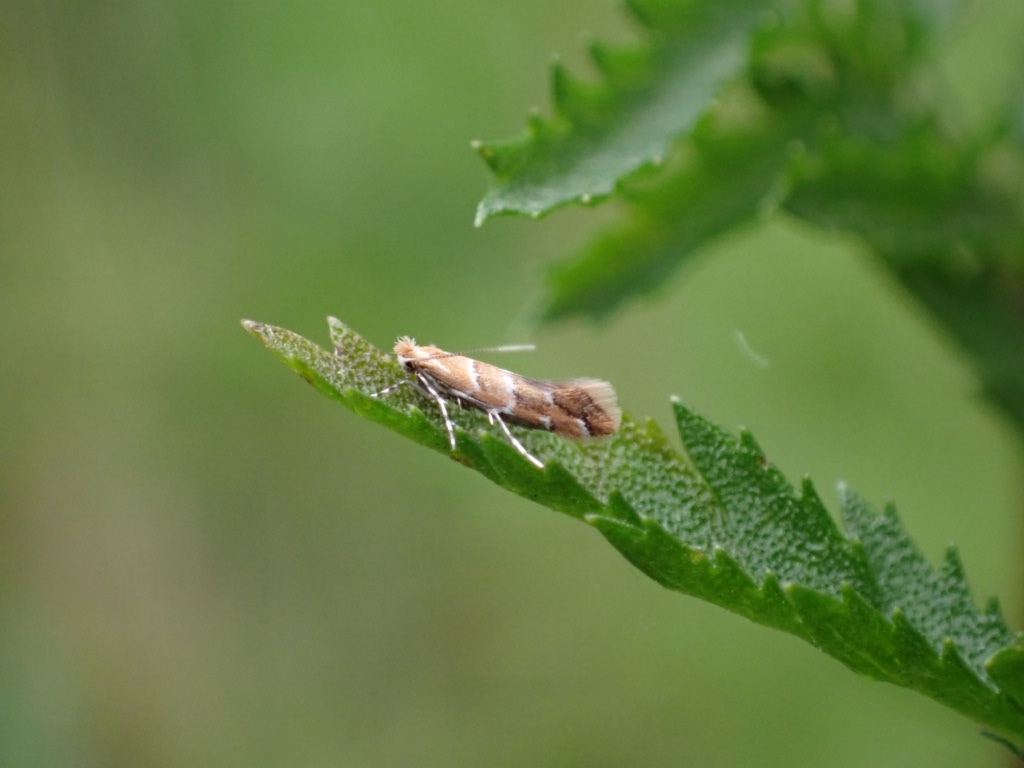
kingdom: Animalia
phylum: Arthropoda
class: Insecta
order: Lepidoptera
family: Gracillariidae
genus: Cameraria
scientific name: Cameraria ohridella
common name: Horse-chestnut leaf-miner
